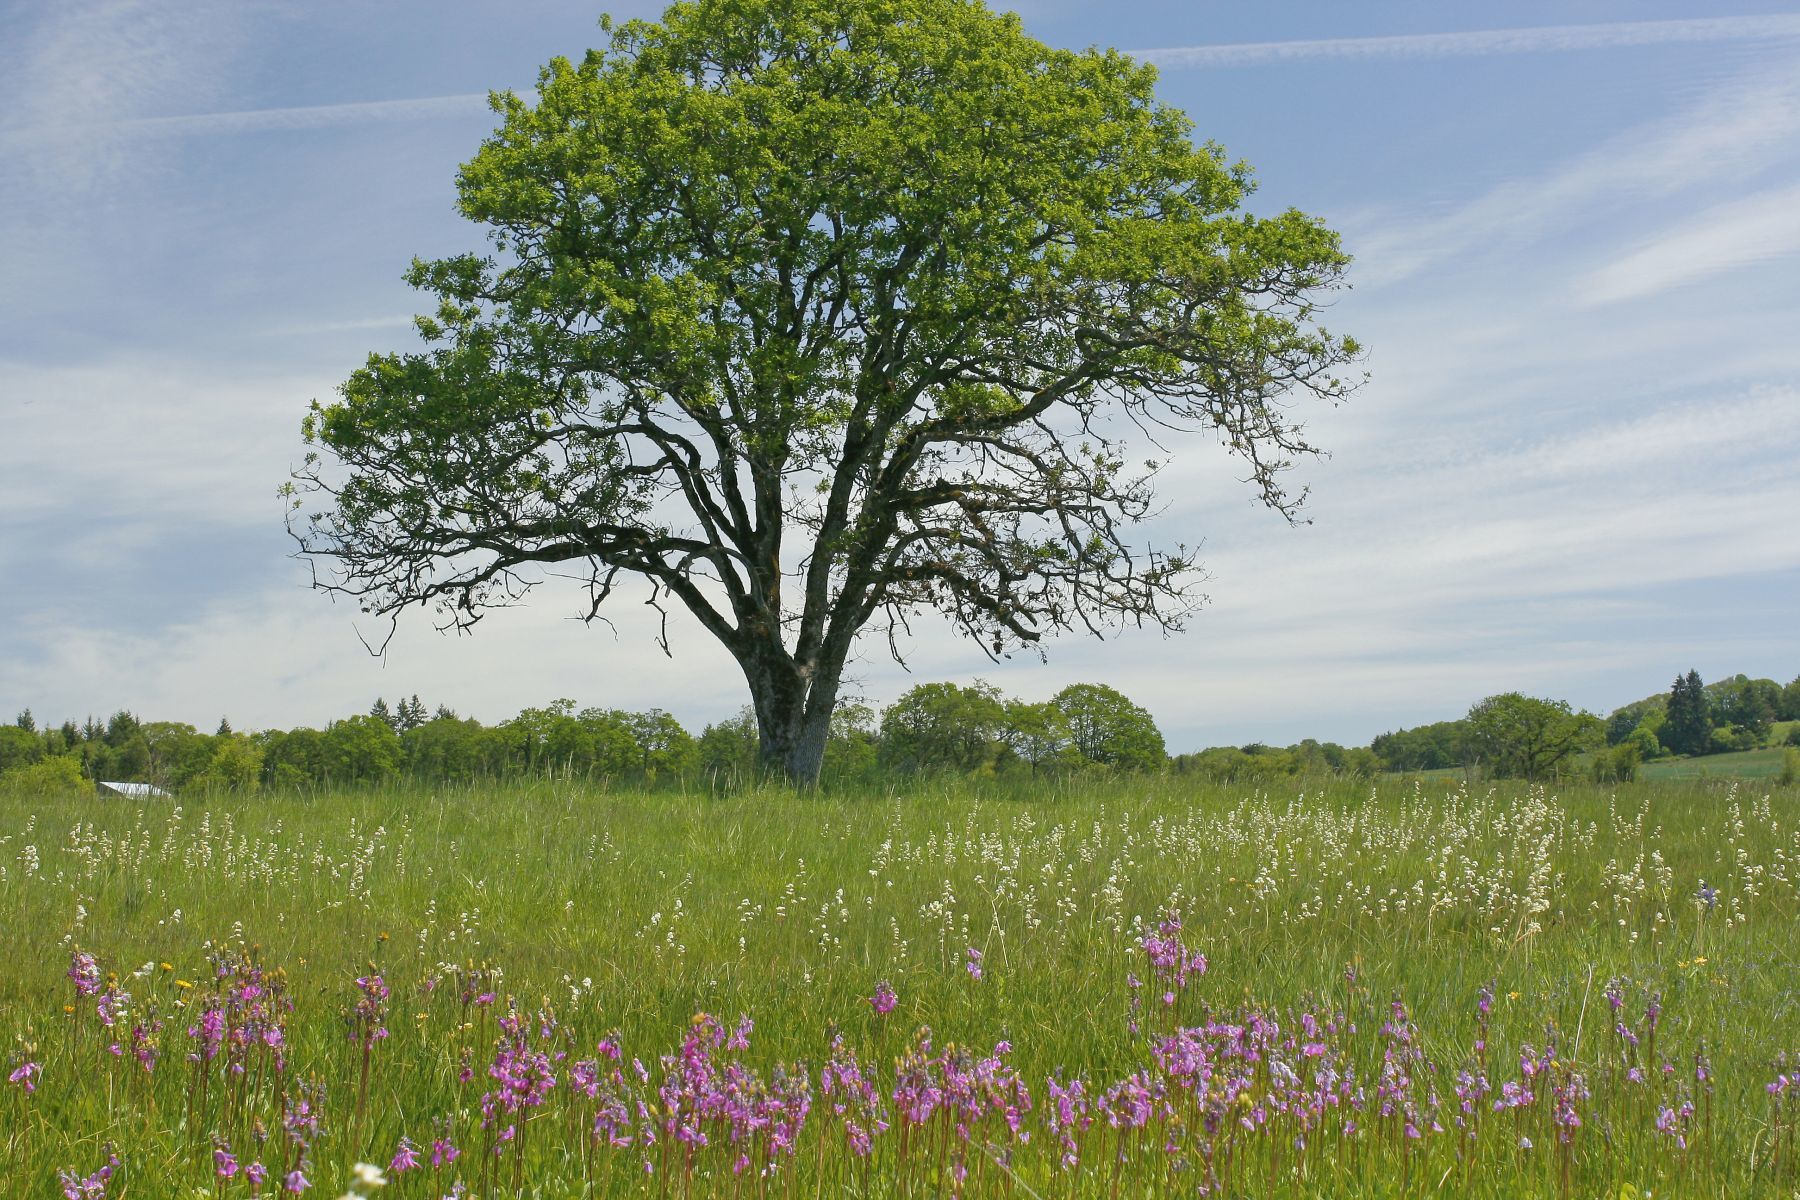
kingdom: Plantae
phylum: Tracheophyta
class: Magnoliopsida
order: Fagales
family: Fagaceae
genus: Quercus
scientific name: Quercus garryana
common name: Garry oak
